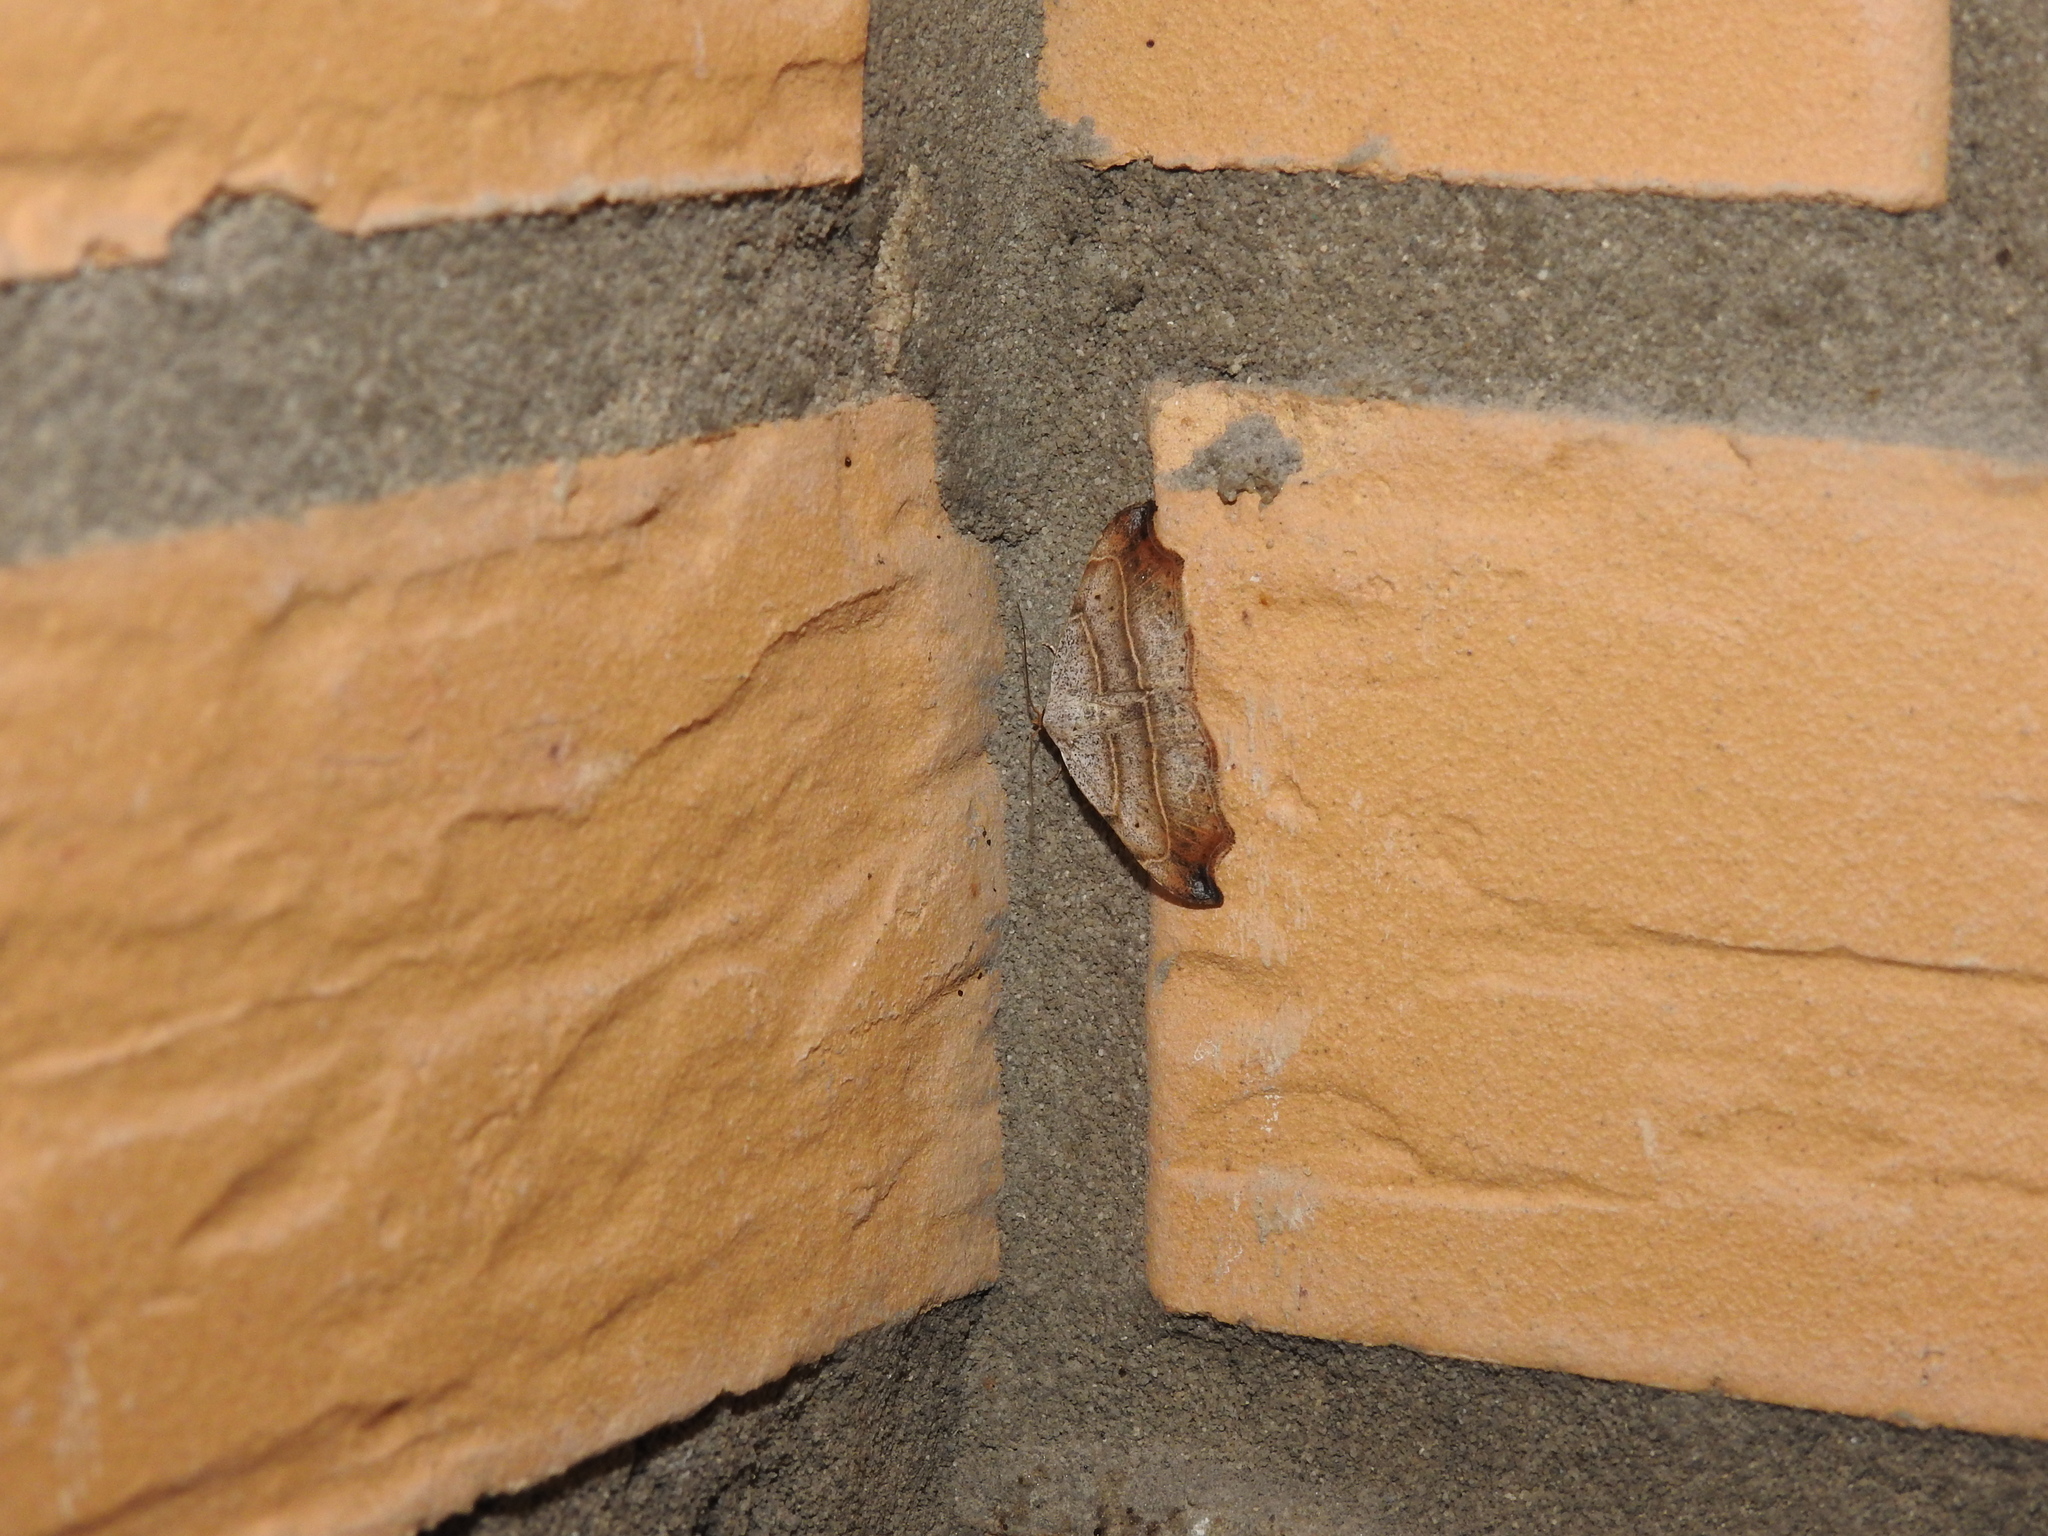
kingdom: Animalia
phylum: Arthropoda
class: Insecta
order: Lepidoptera
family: Erebidae
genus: Laspeyria
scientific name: Laspeyria flexula
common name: Beautiful hook-tip
